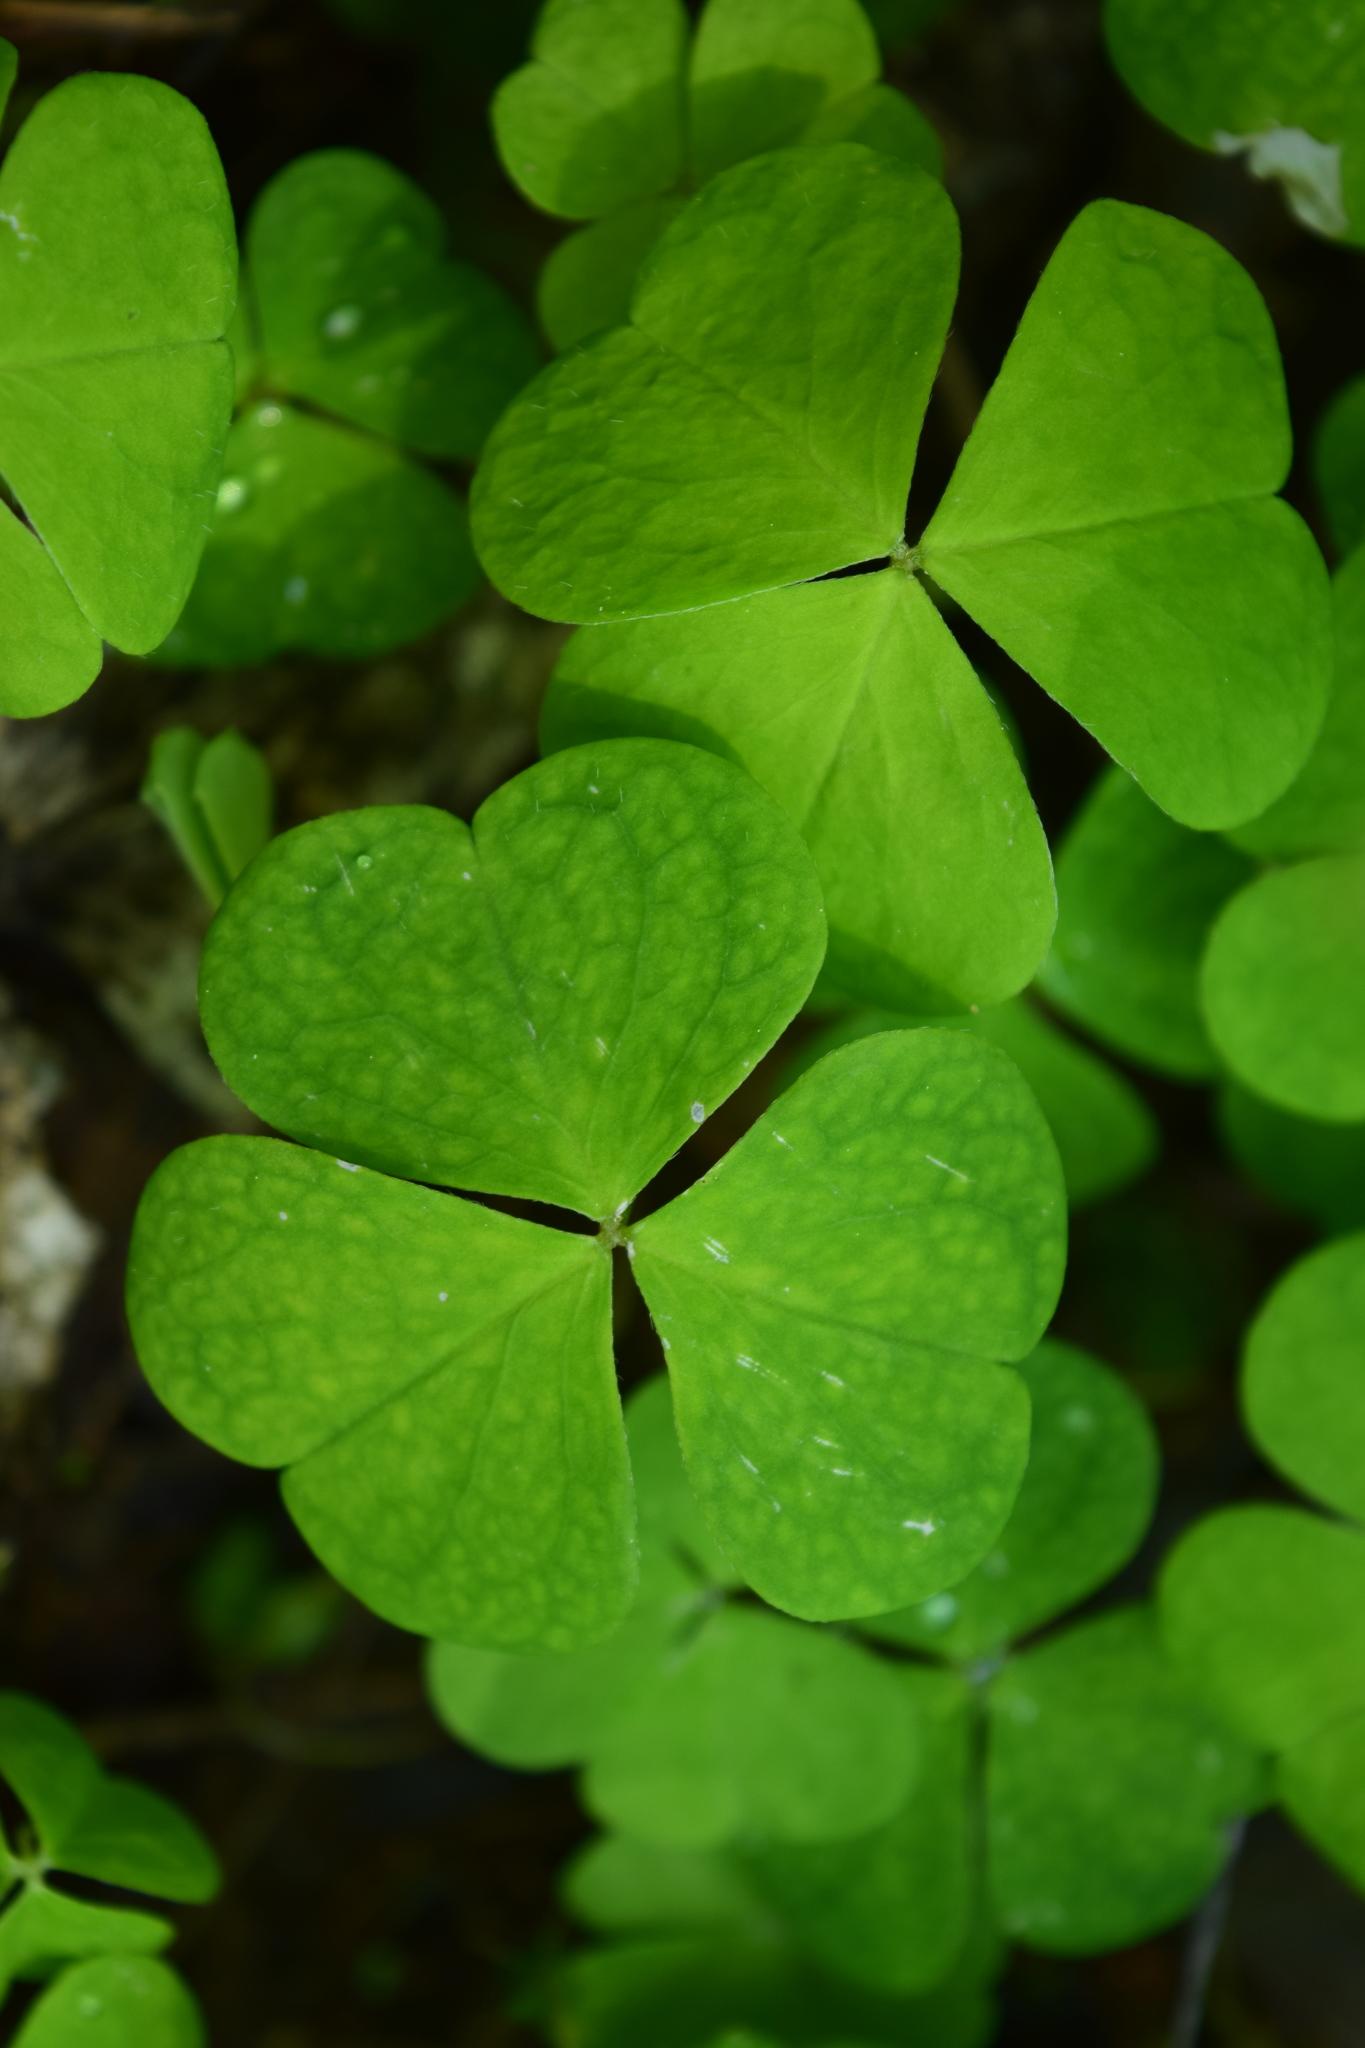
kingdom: Plantae
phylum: Tracheophyta
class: Magnoliopsida
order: Oxalidales
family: Oxalidaceae
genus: Oxalis
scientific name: Oxalis acetosella
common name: Wood-sorrel
